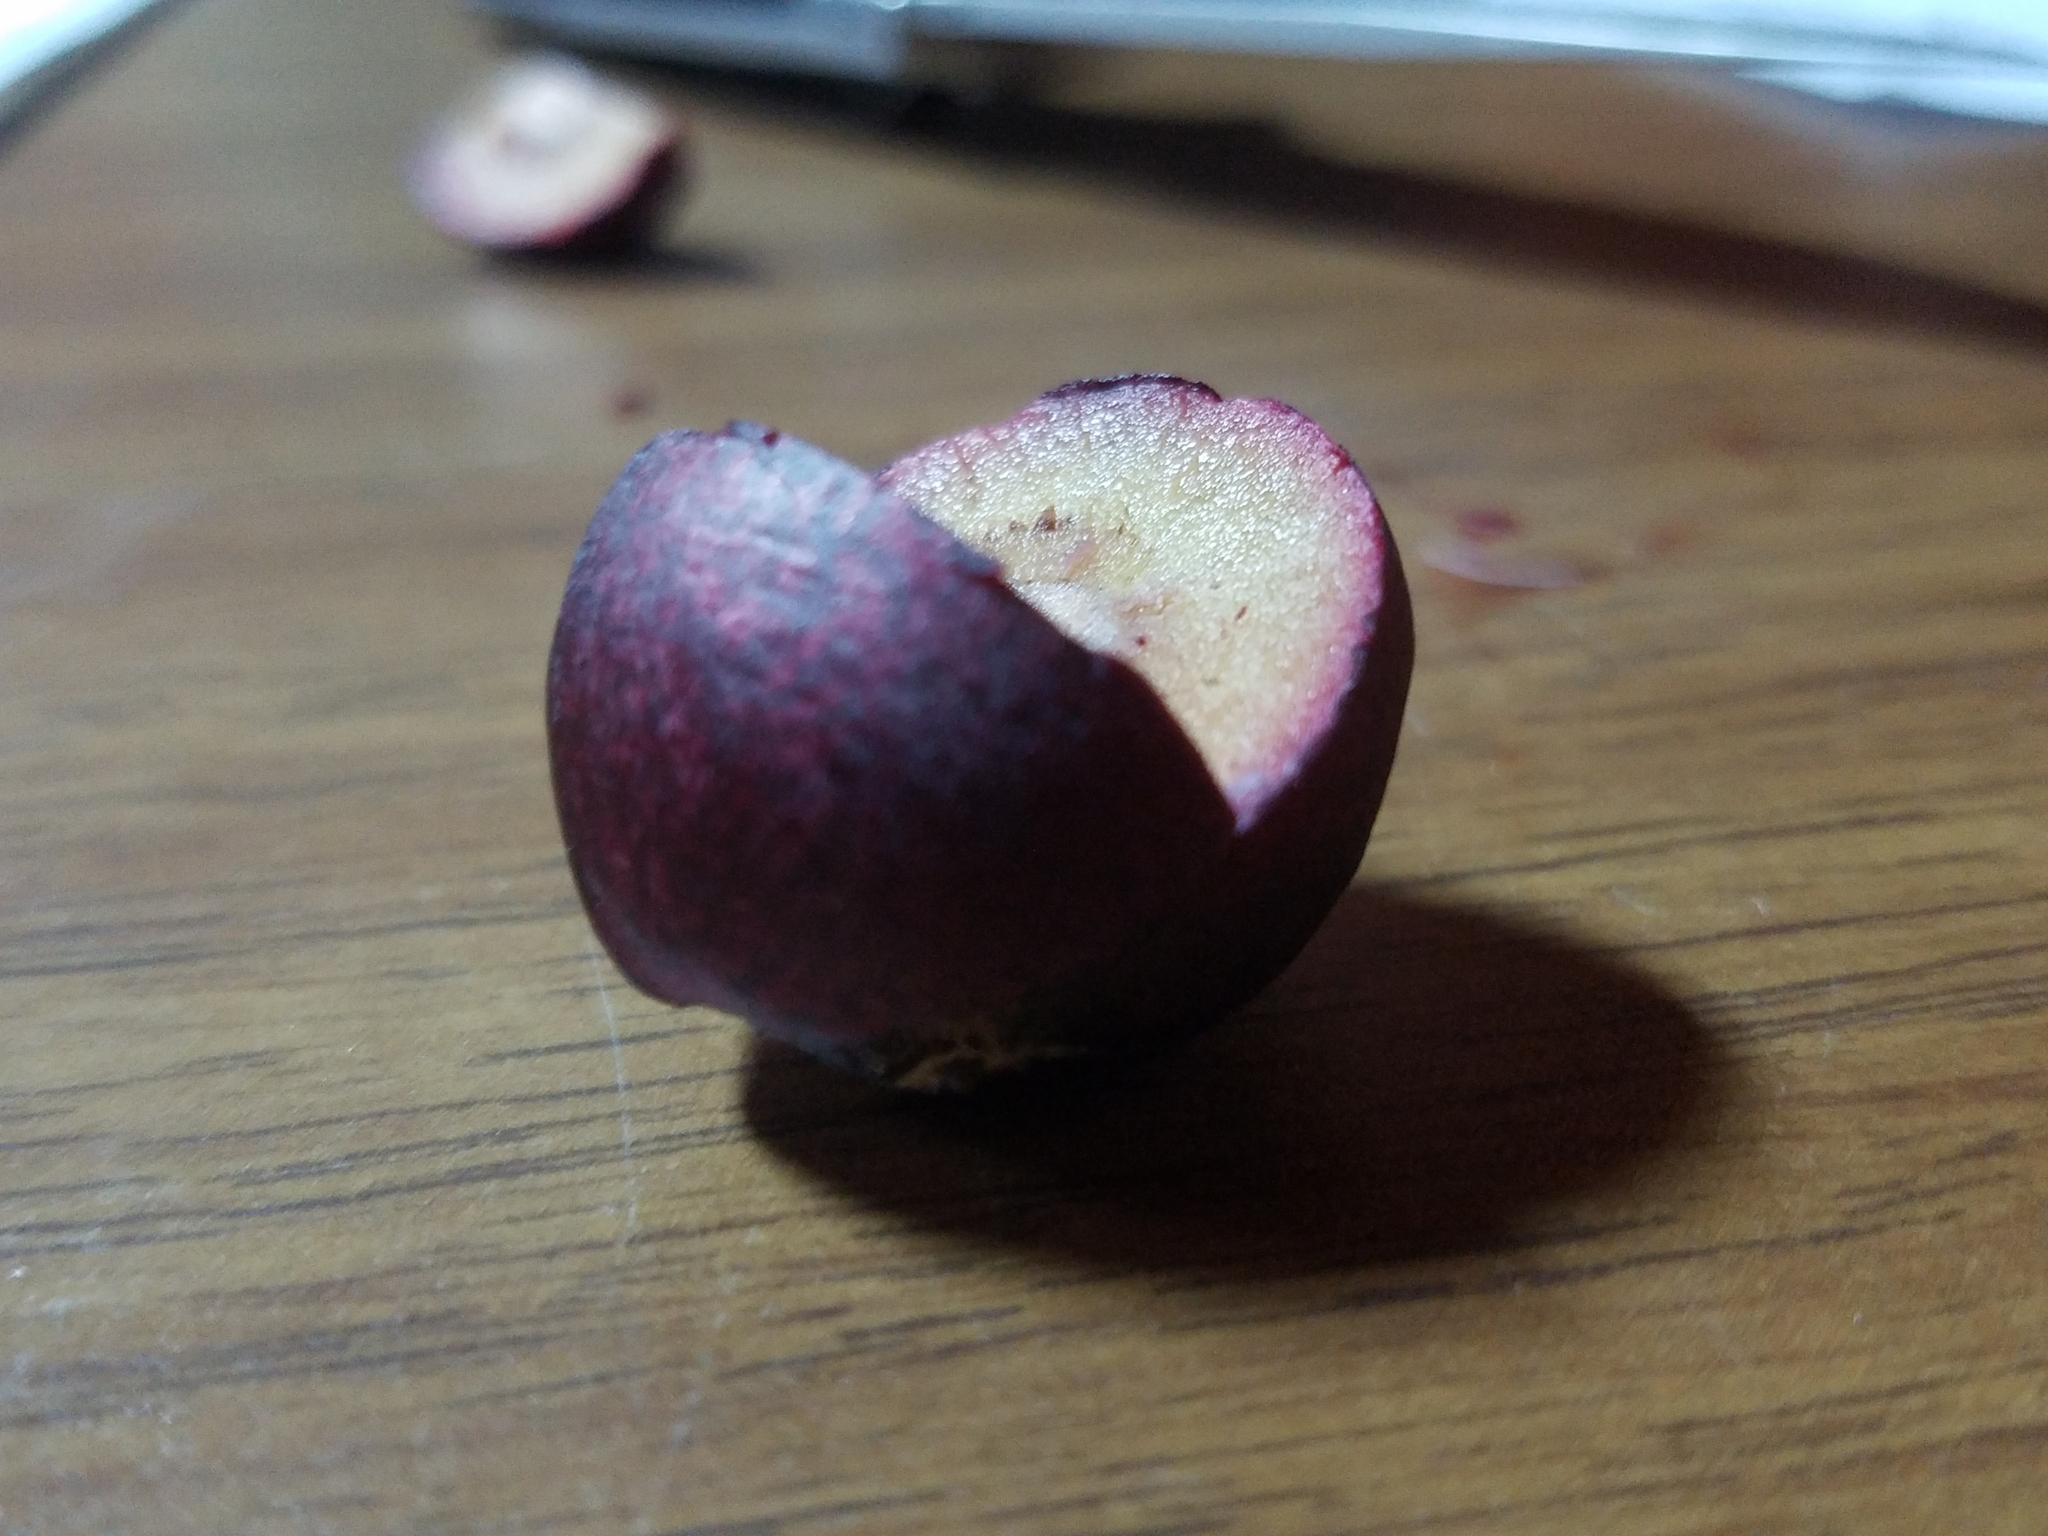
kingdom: Animalia
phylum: Arthropoda
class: Insecta
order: Hymenoptera
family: Cynipidae
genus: Amphibolips
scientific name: Amphibolips
